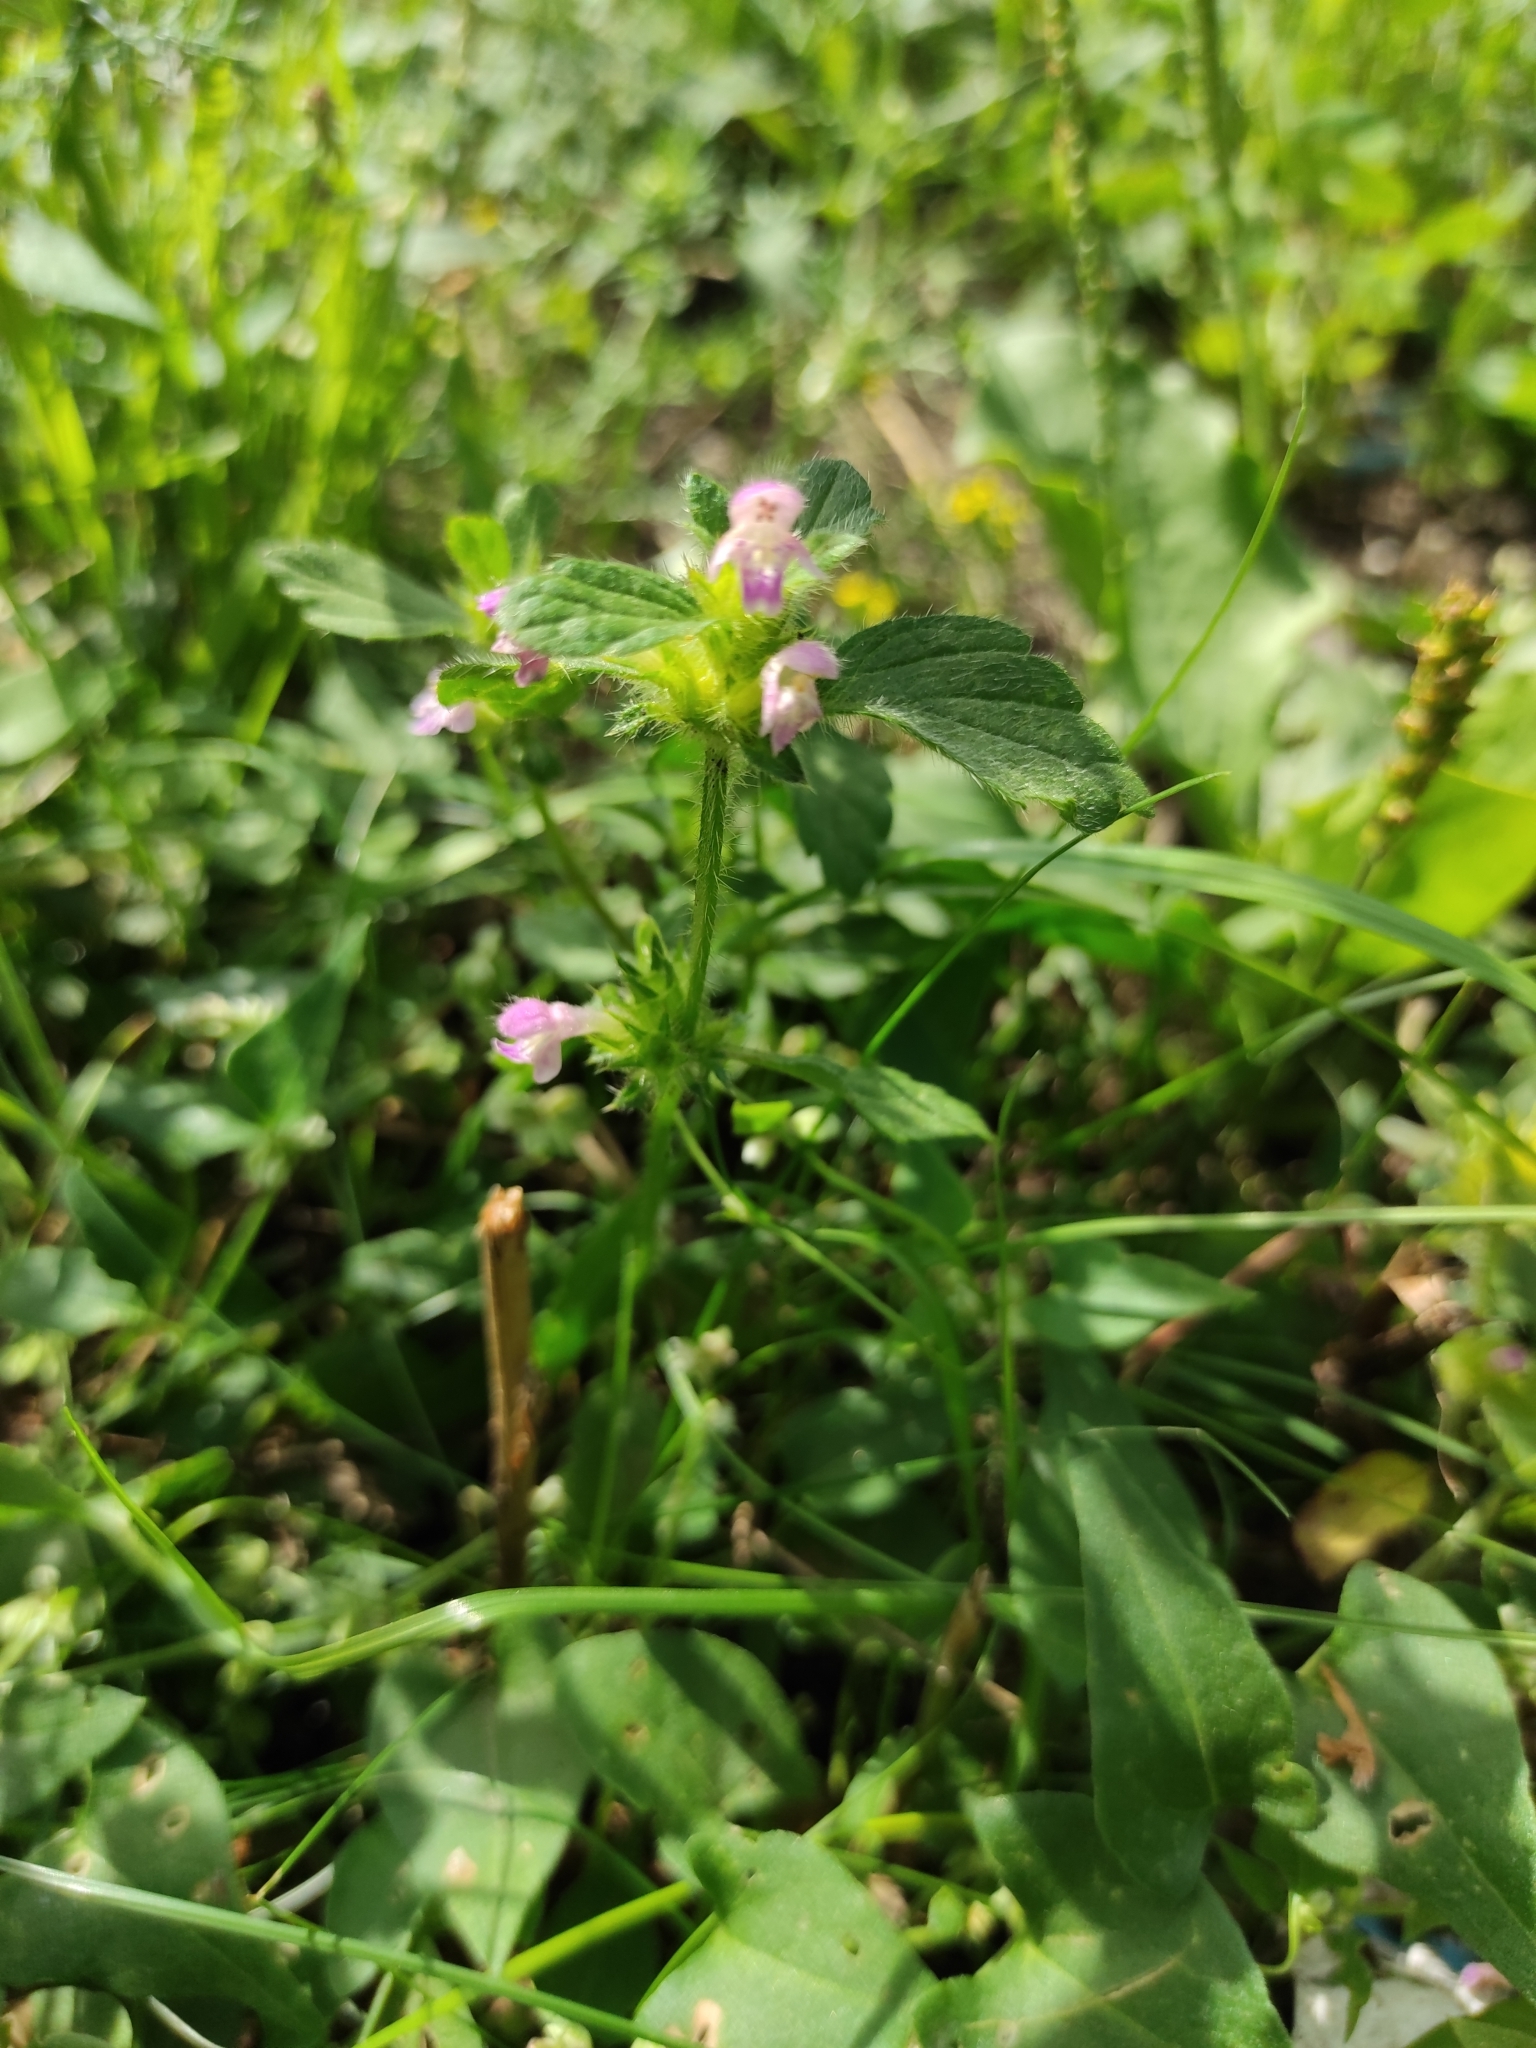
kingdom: Plantae
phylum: Tracheophyta
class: Magnoliopsida
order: Lamiales
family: Lamiaceae
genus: Galeopsis
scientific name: Galeopsis bifida
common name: Bifid hemp-nettle
